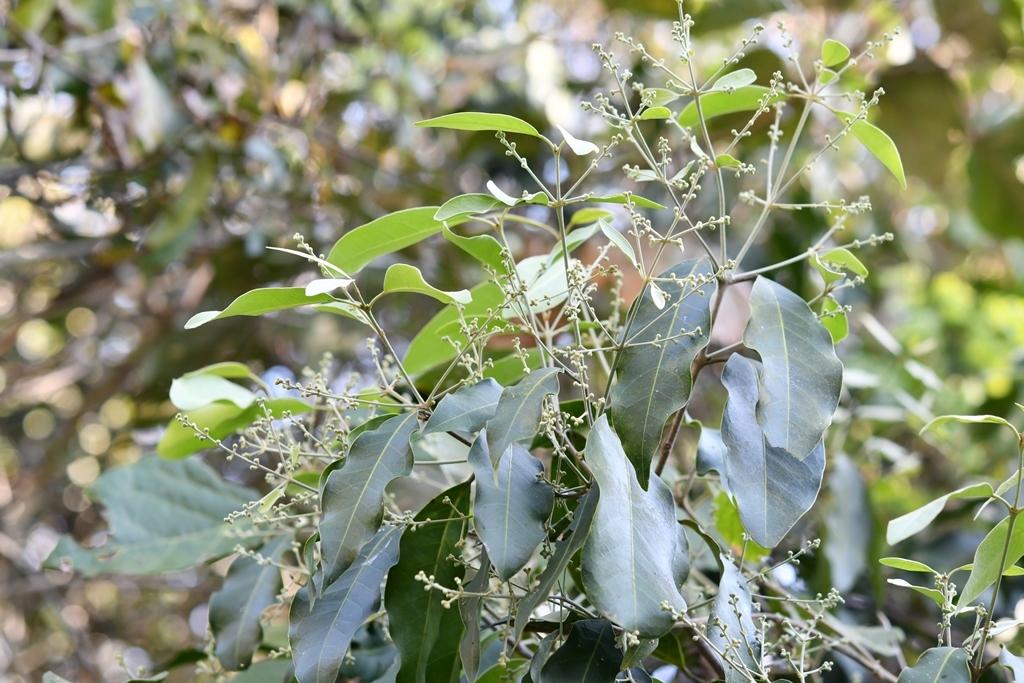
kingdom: Plantae
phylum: Tracheophyta
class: Magnoliopsida
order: Malpighiales
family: Malpighiaceae
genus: Psychopterys
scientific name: Psychopterys multiflora
